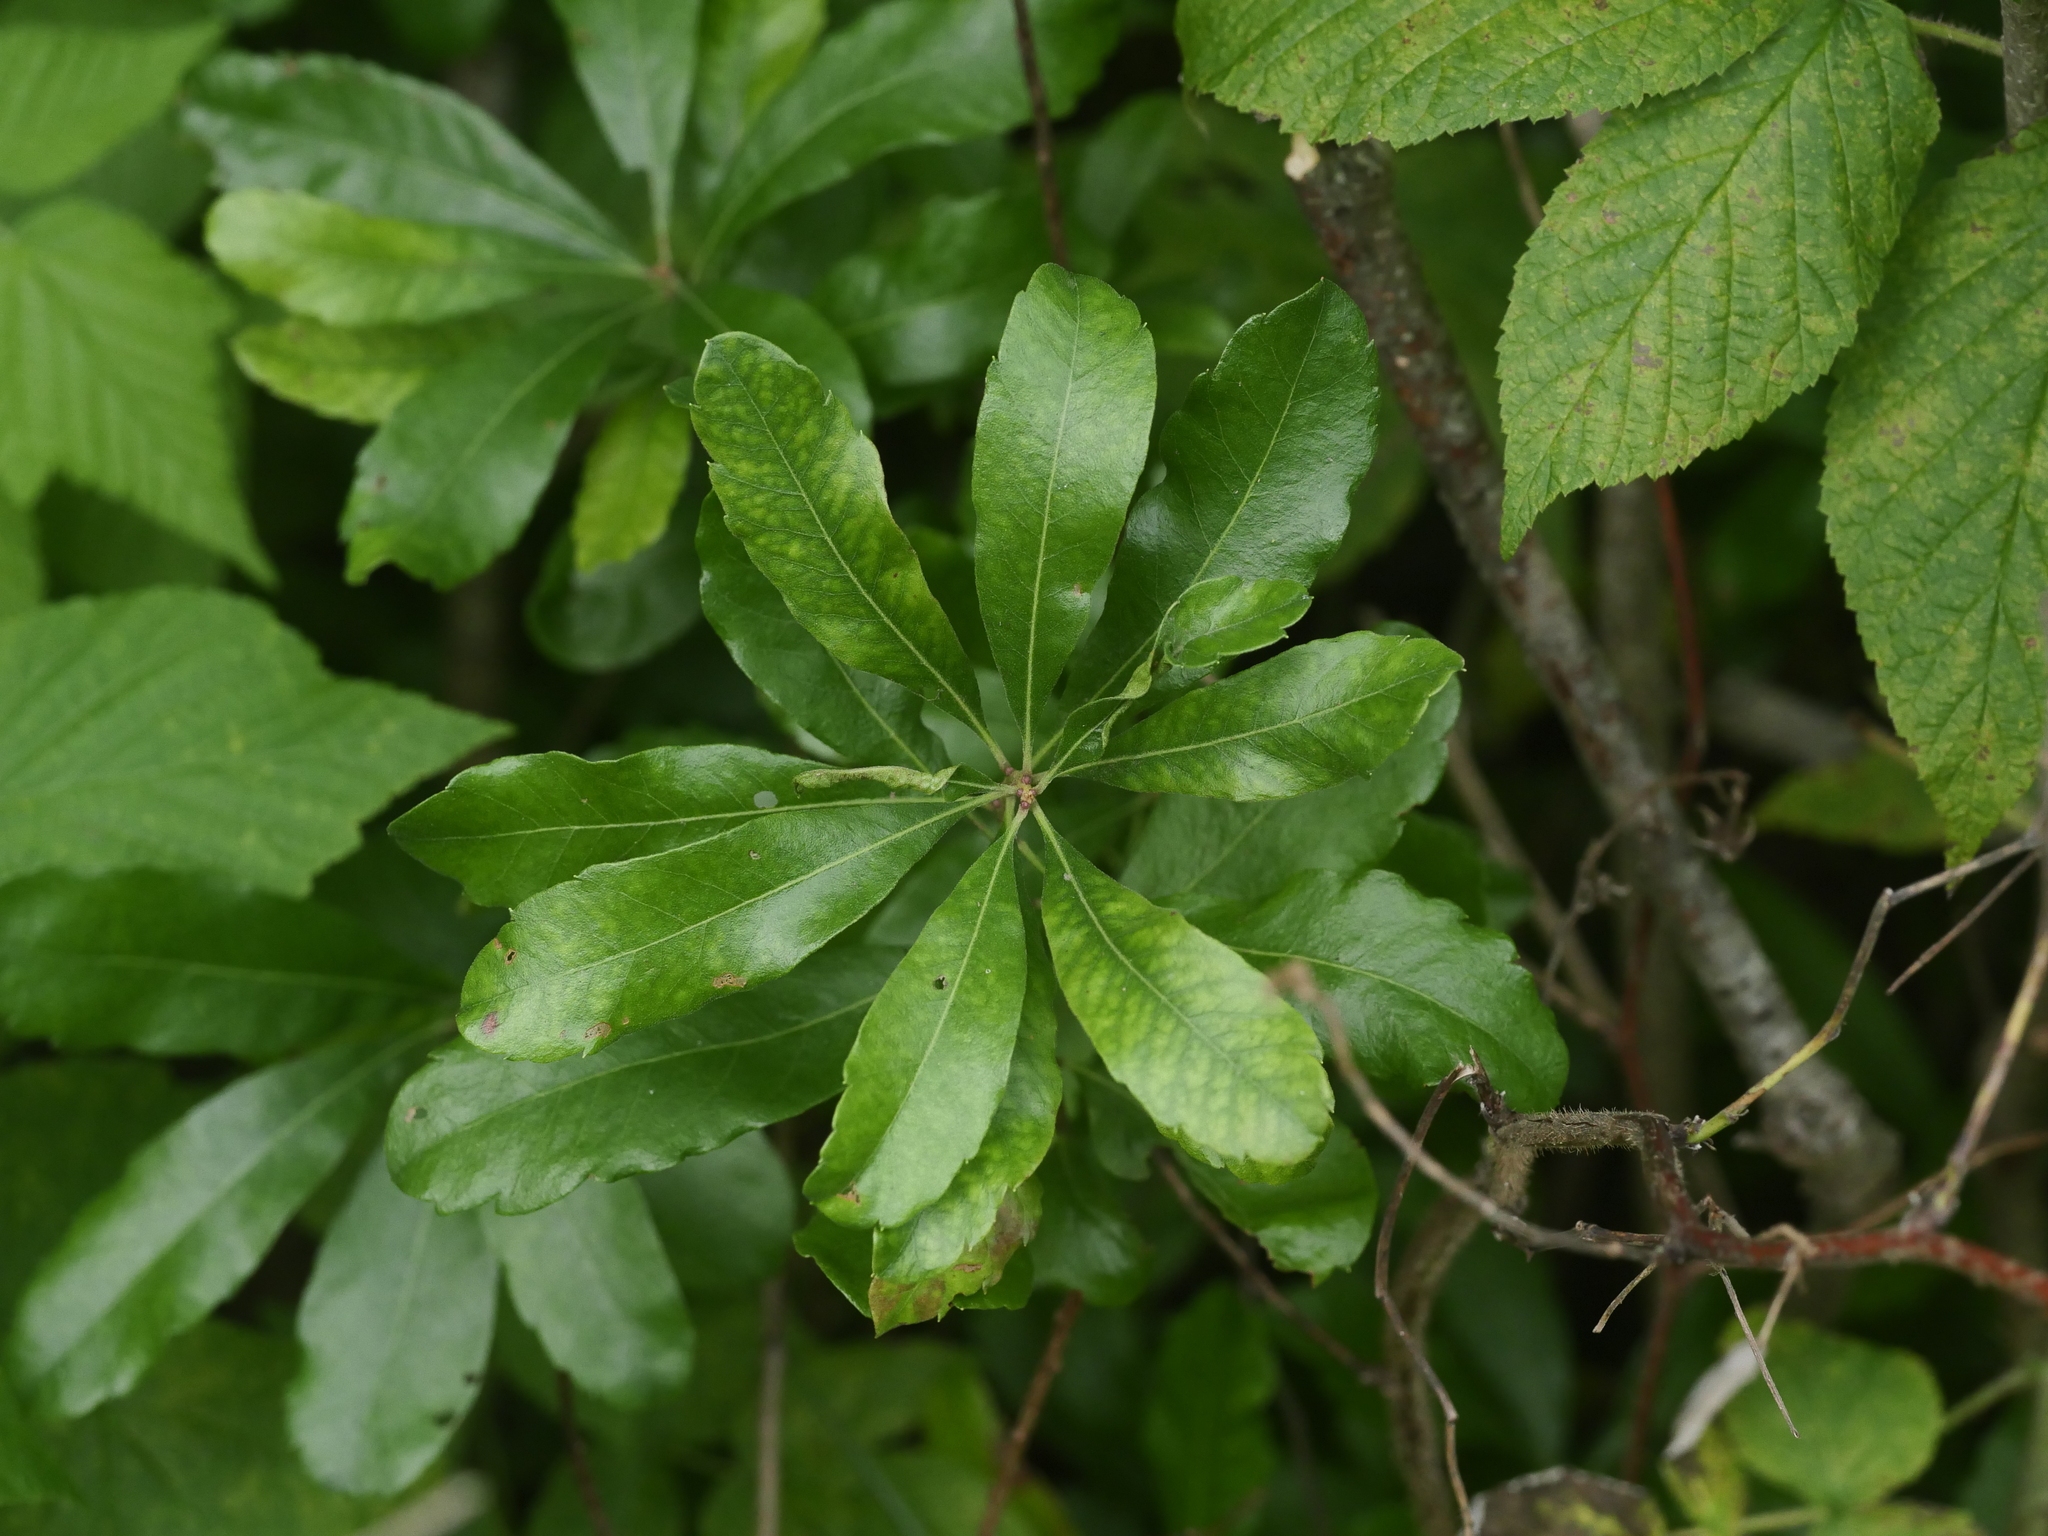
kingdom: Plantae
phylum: Tracheophyta
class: Magnoliopsida
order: Fagales
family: Myricaceae
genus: Morella
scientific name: Morella pensylvanica
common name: Northern bayberry
